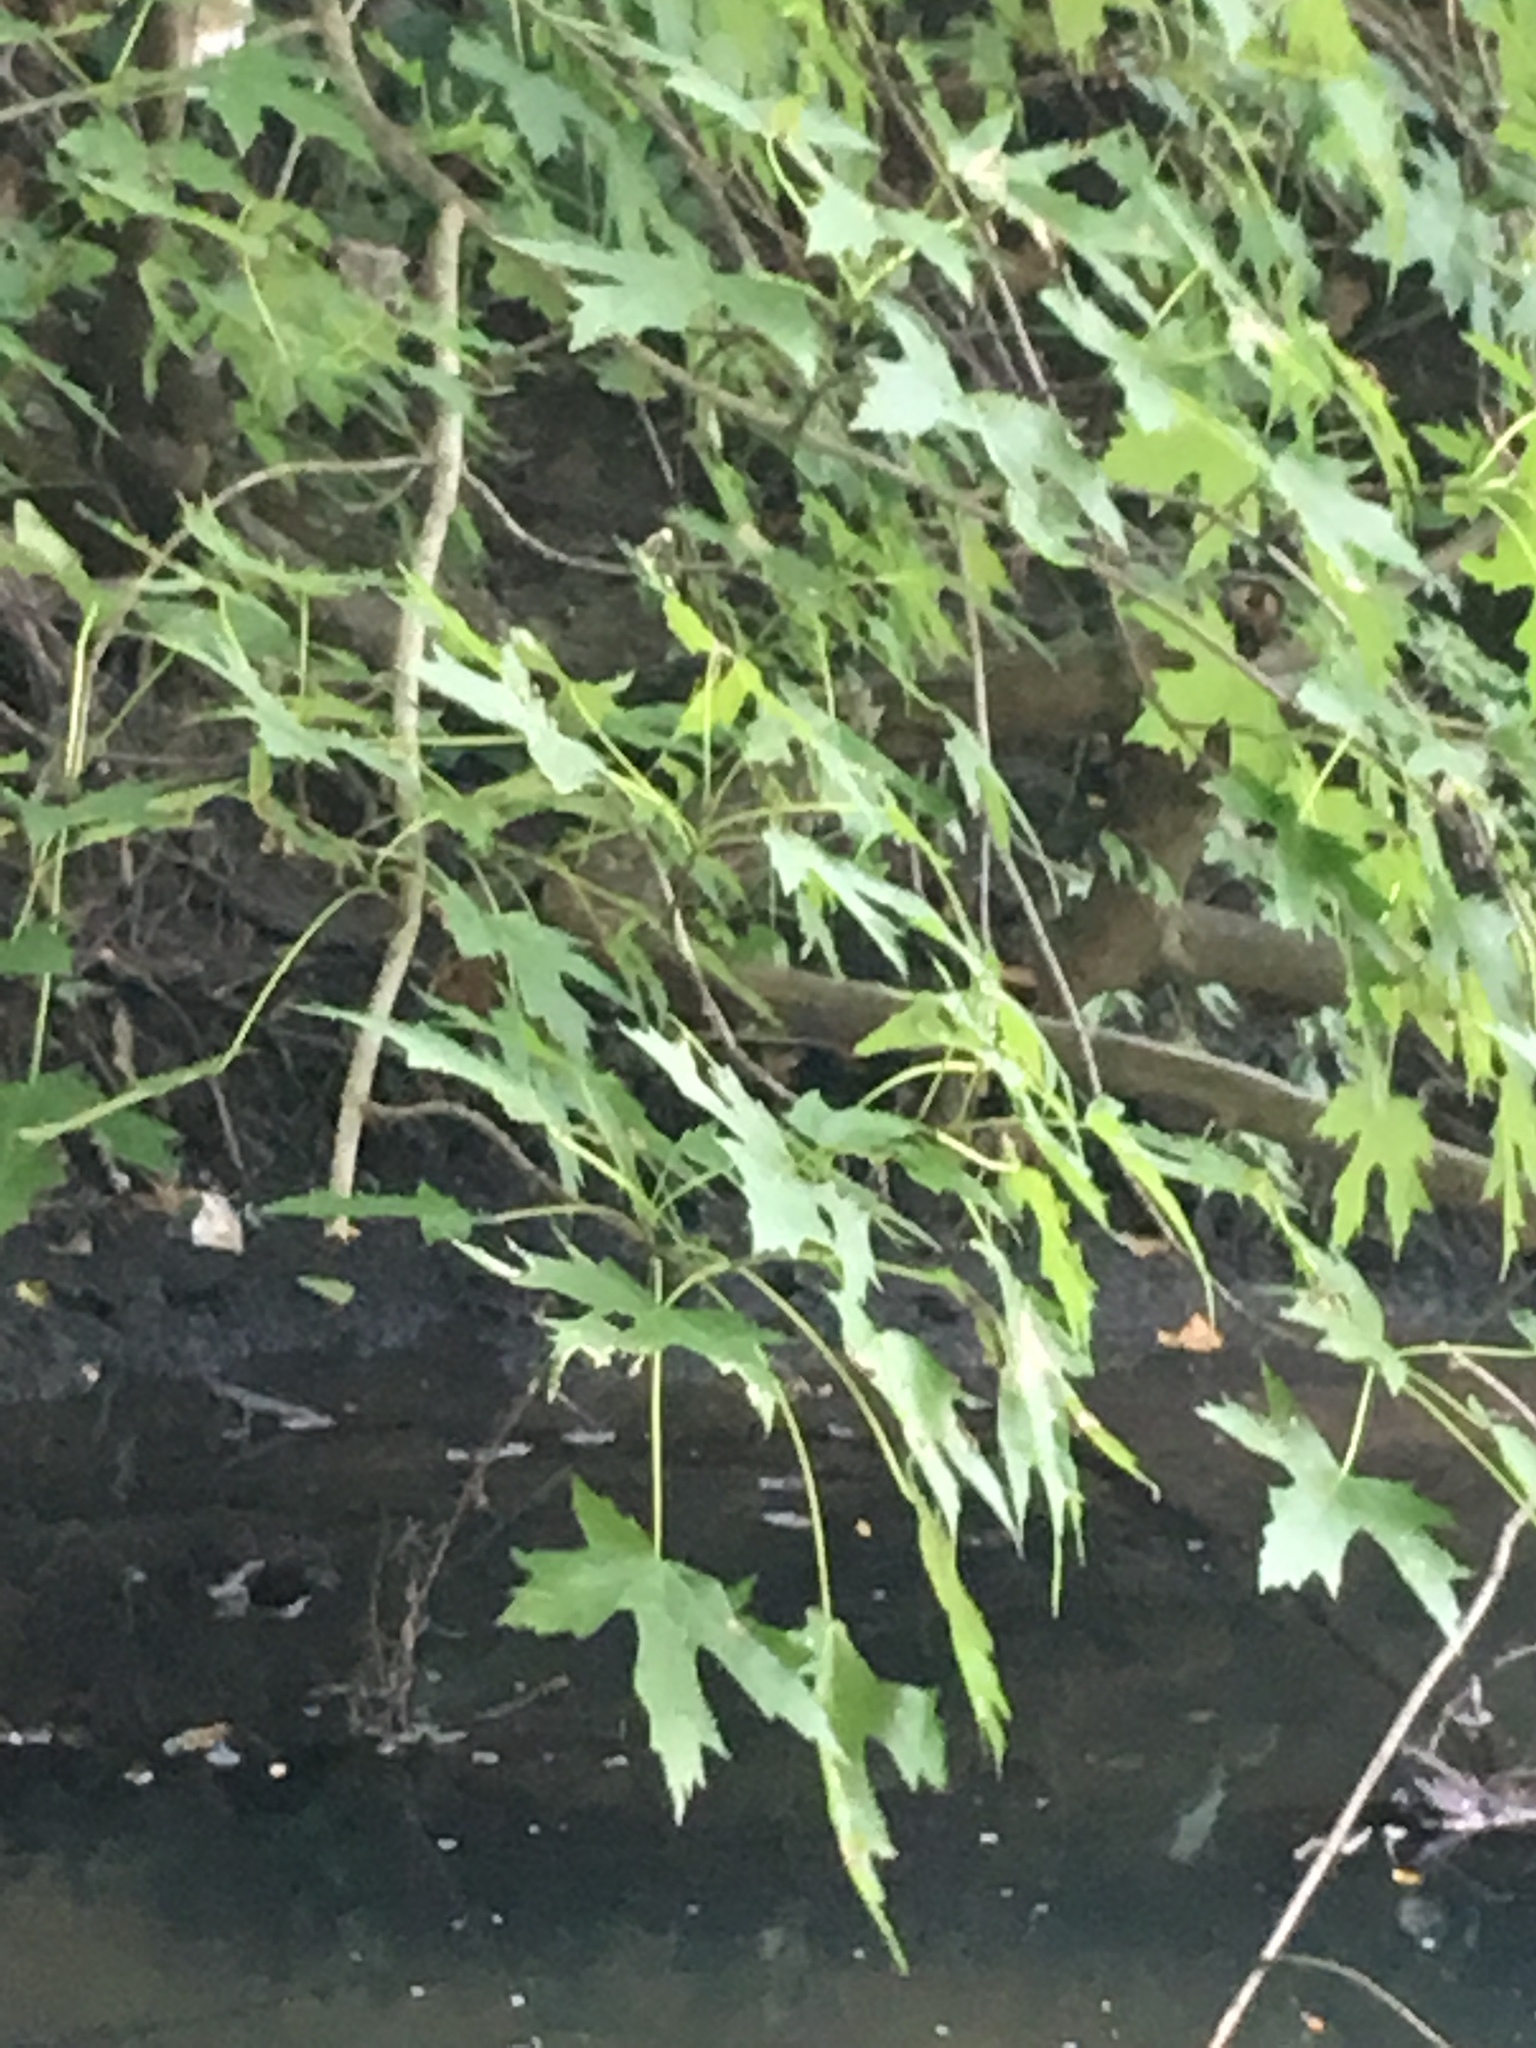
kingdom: Plantae
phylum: Tracheophyta
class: Magnoliopsida
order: Sapindales
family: Sapindaceae
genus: Acer
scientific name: Acer saccharinum
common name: Silver maple
